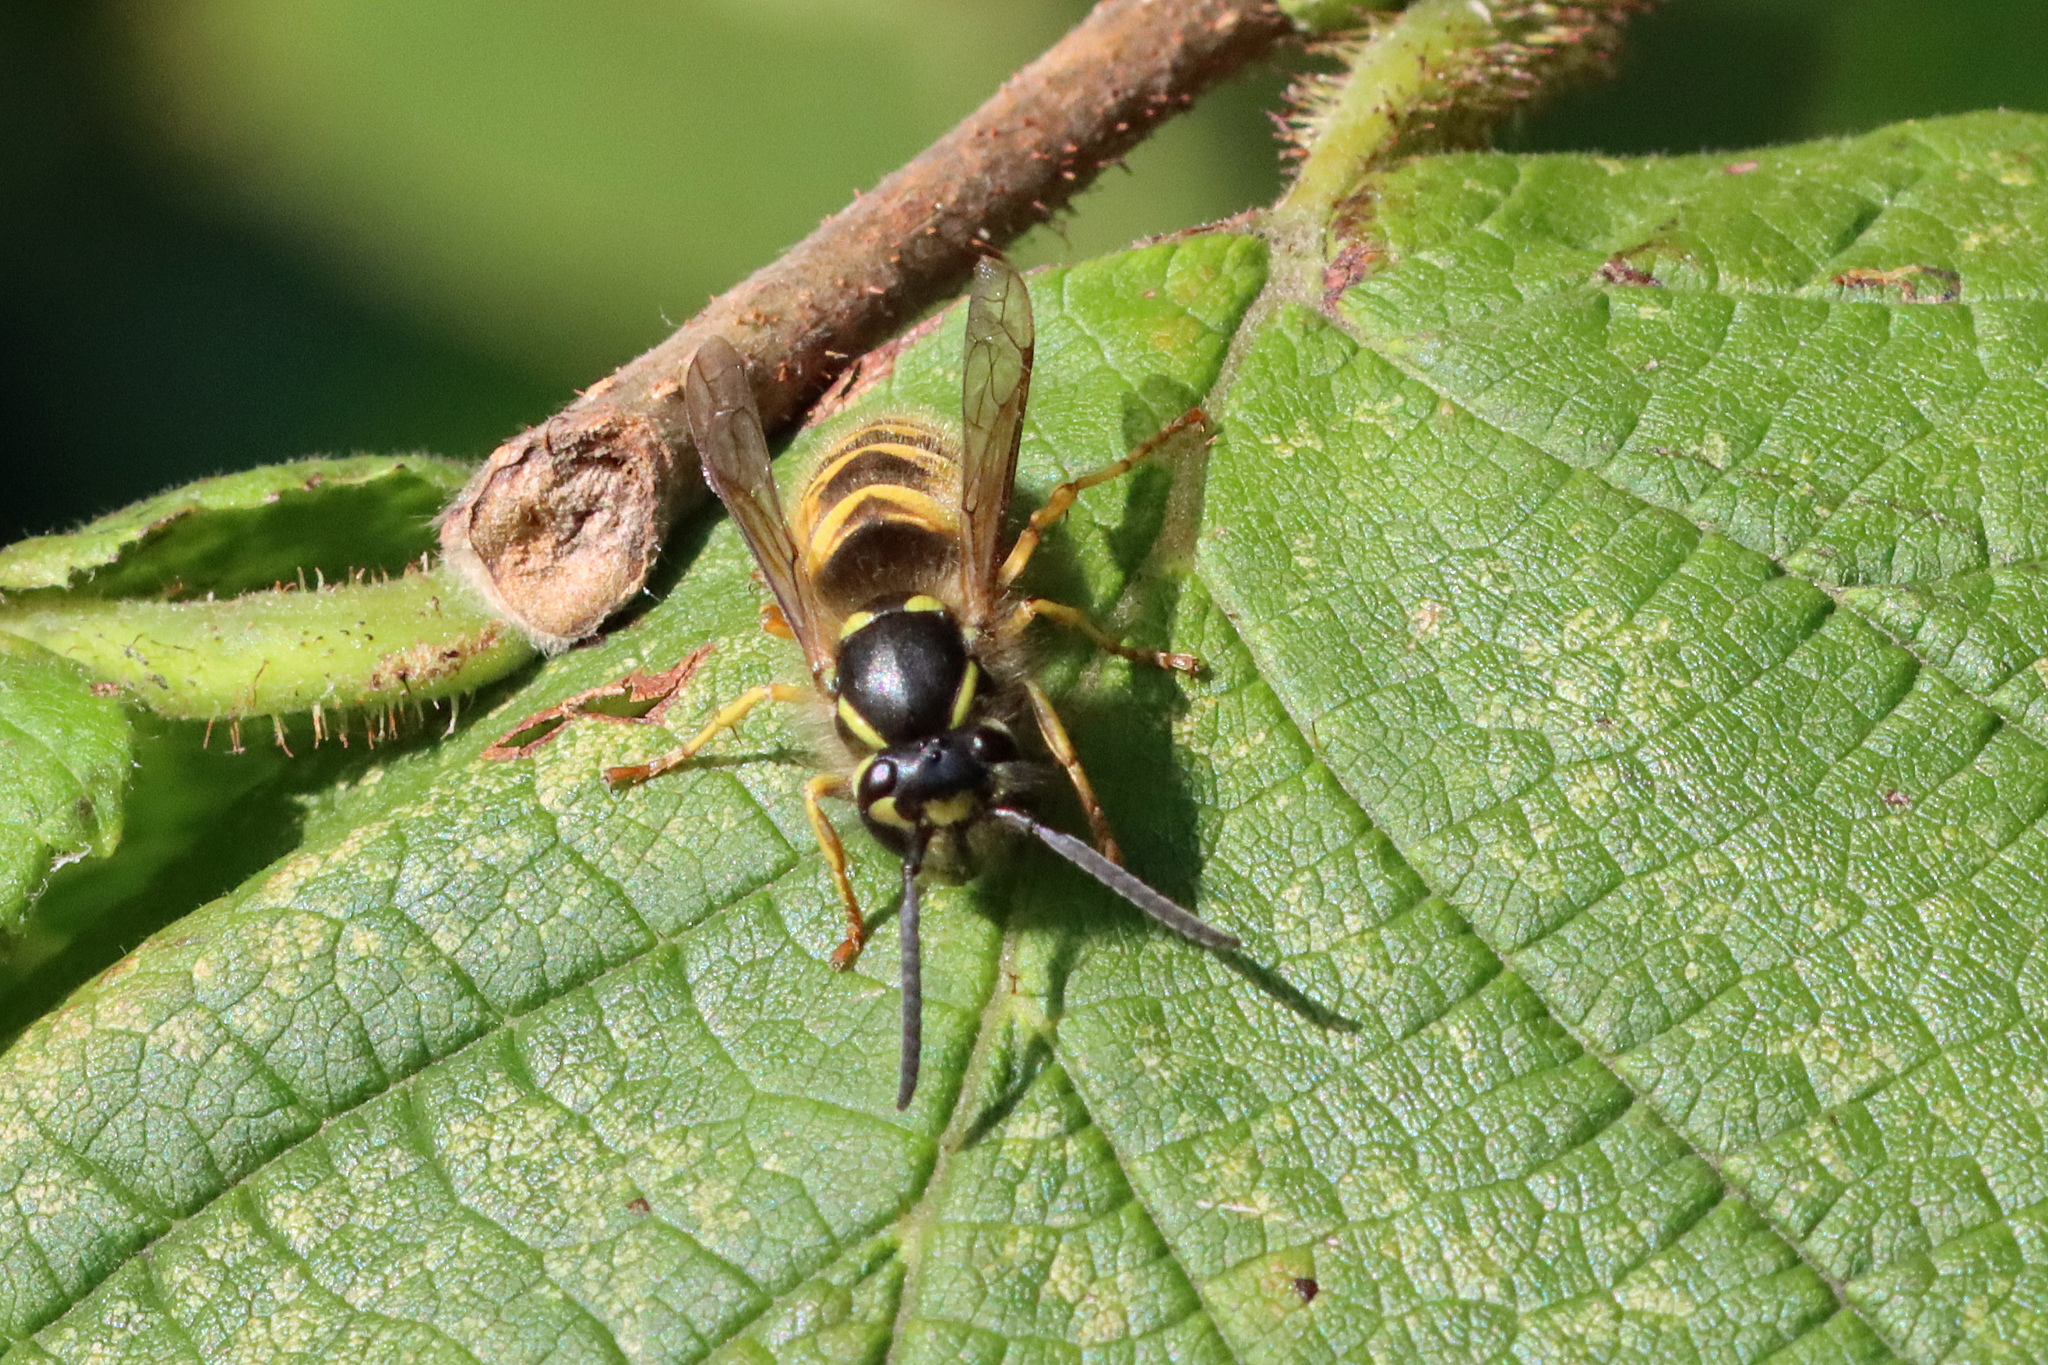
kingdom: Animalia
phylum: Arthropoda
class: Insecta
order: Hymenoptera
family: Vespidae
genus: Vespula
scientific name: Vespula vulgaris
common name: Common wasp
